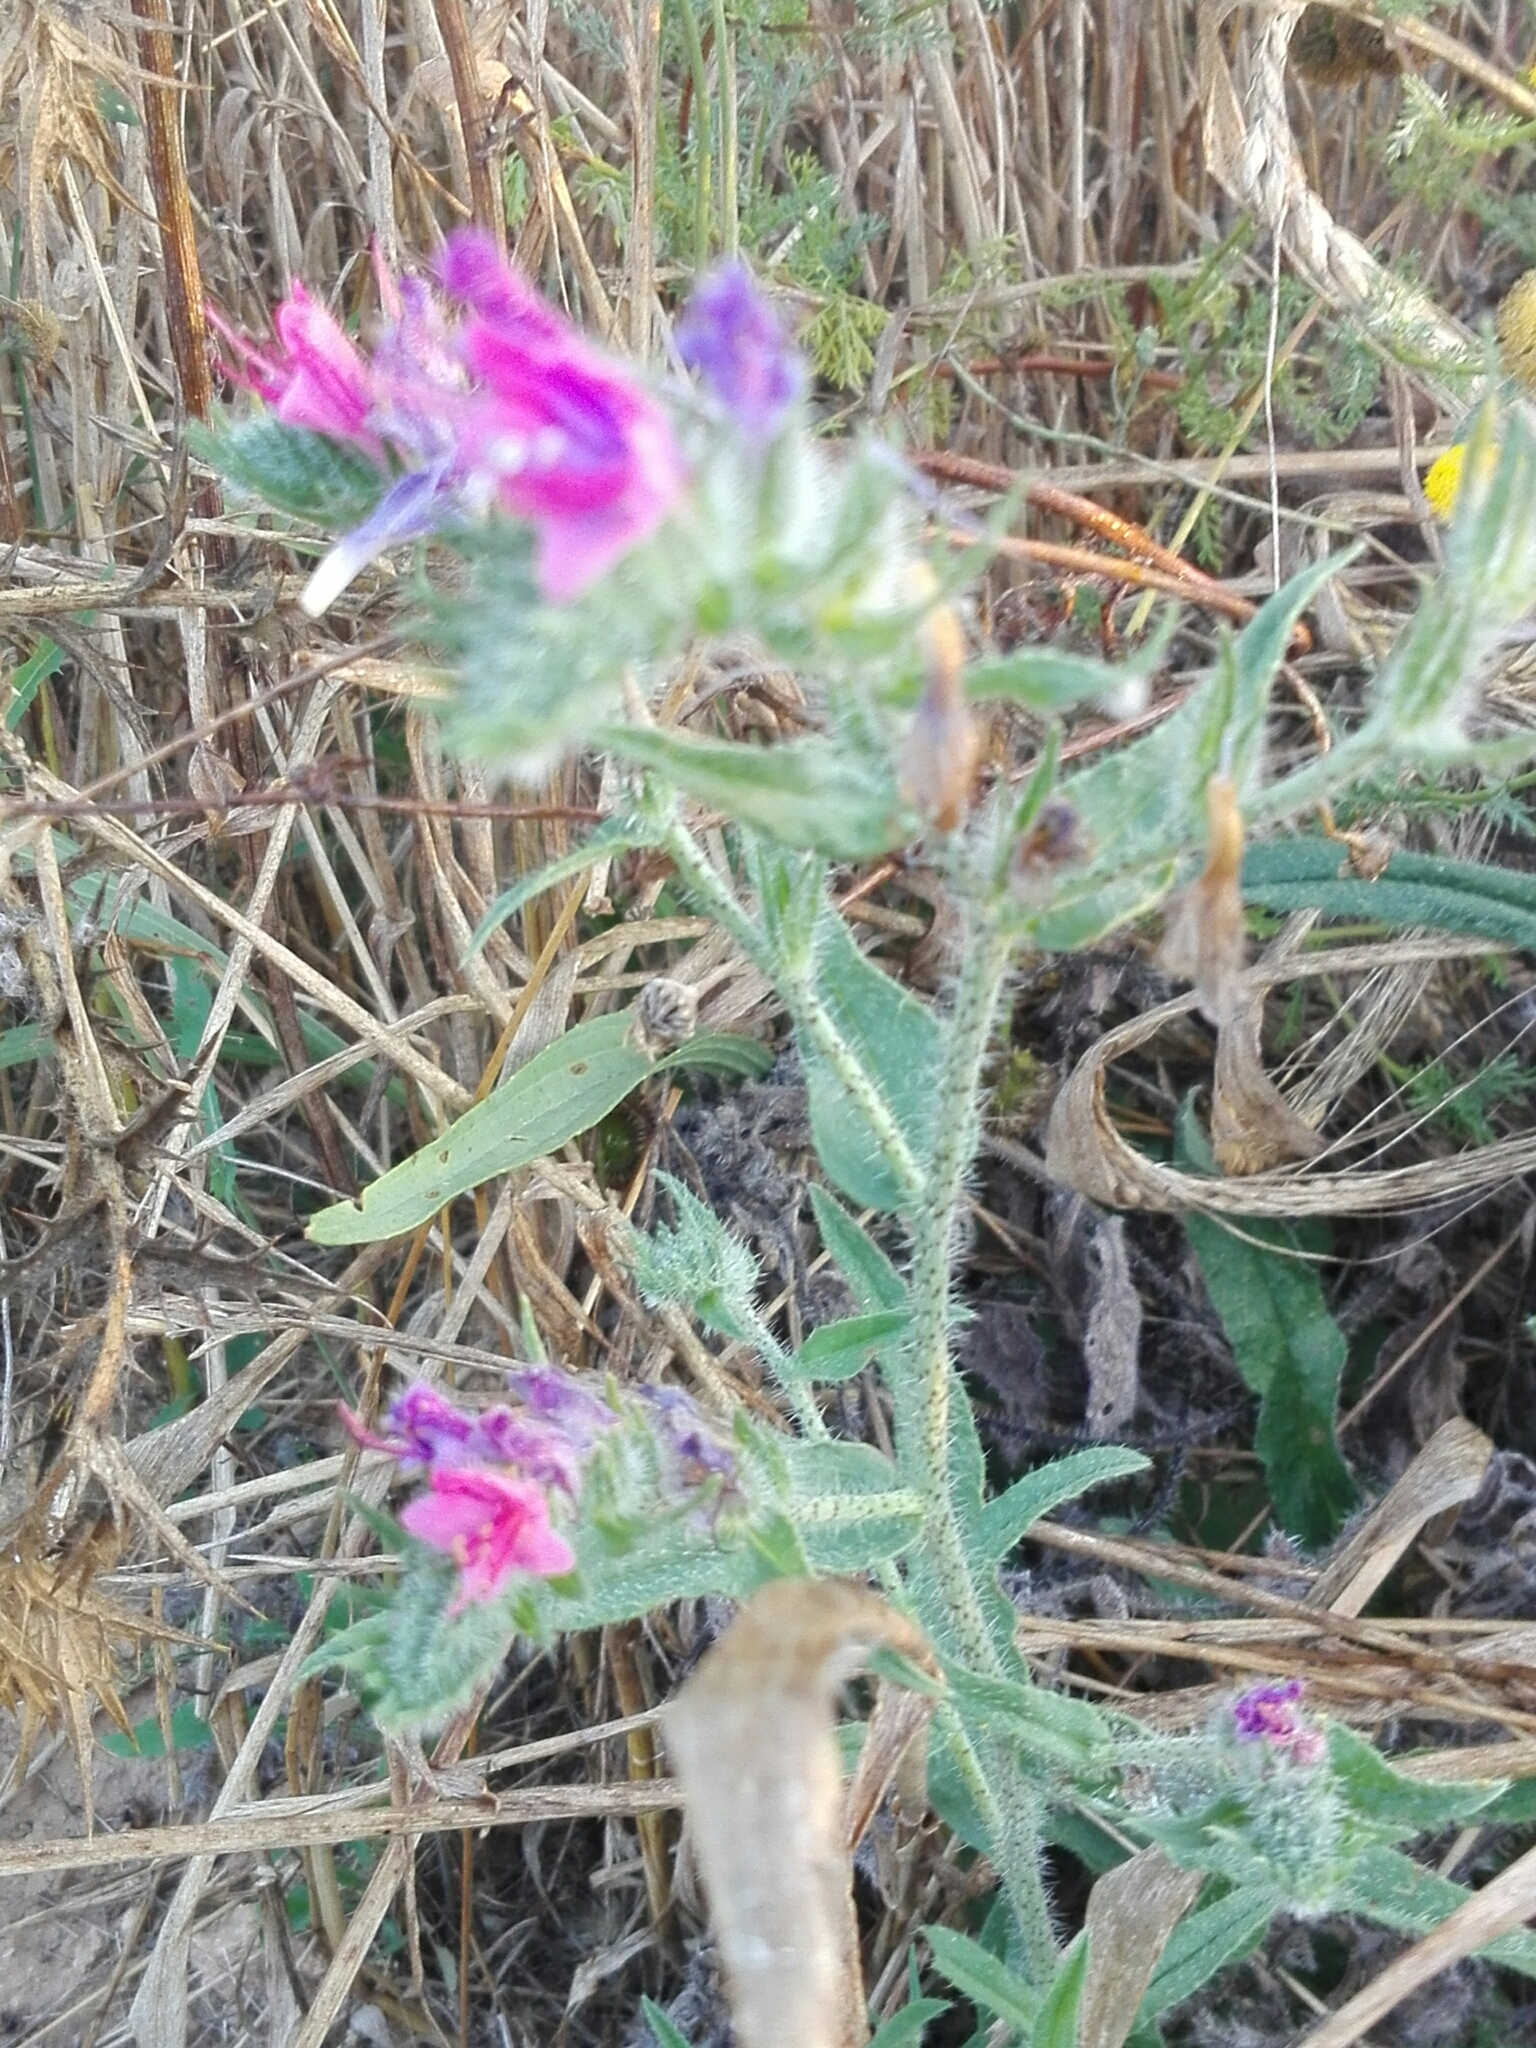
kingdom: Plantae
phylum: Tracheophyta
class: Magnoliopsida
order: Boraginales
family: Boraginaceae
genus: Echium
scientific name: Echium vulgare
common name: Common viper's bugloss
